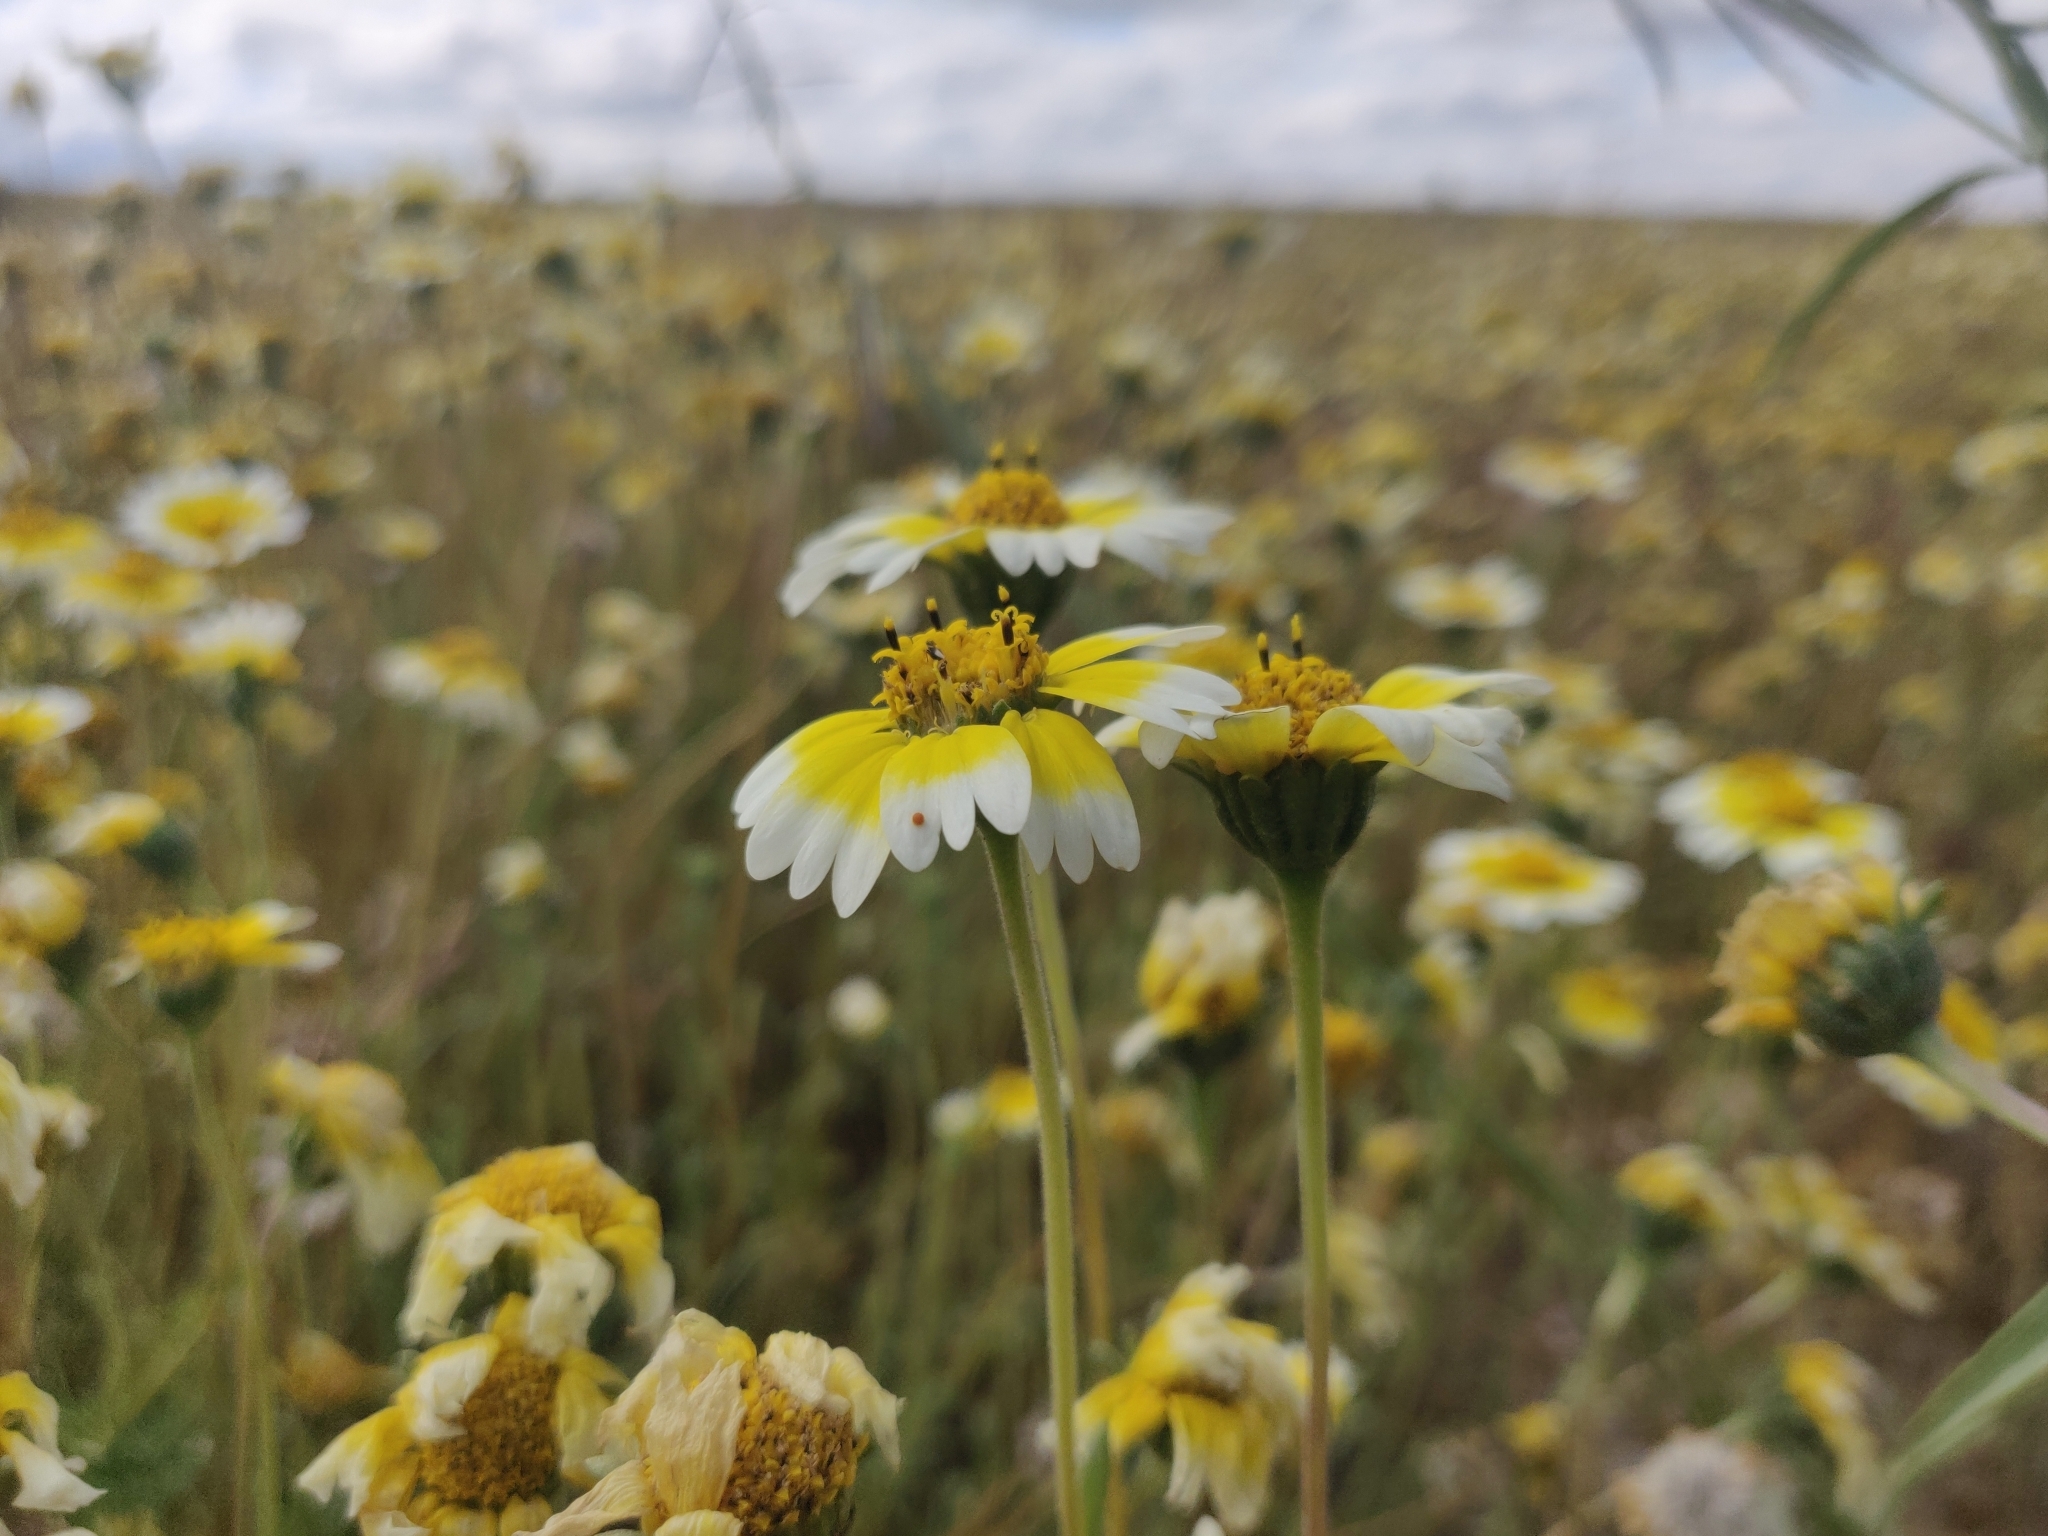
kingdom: Plantae
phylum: Tracheophyta
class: Magnoliopsida
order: Asterales
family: Asteraceae
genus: Layia
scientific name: Layia munzii
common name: Munz's tidy-tips
